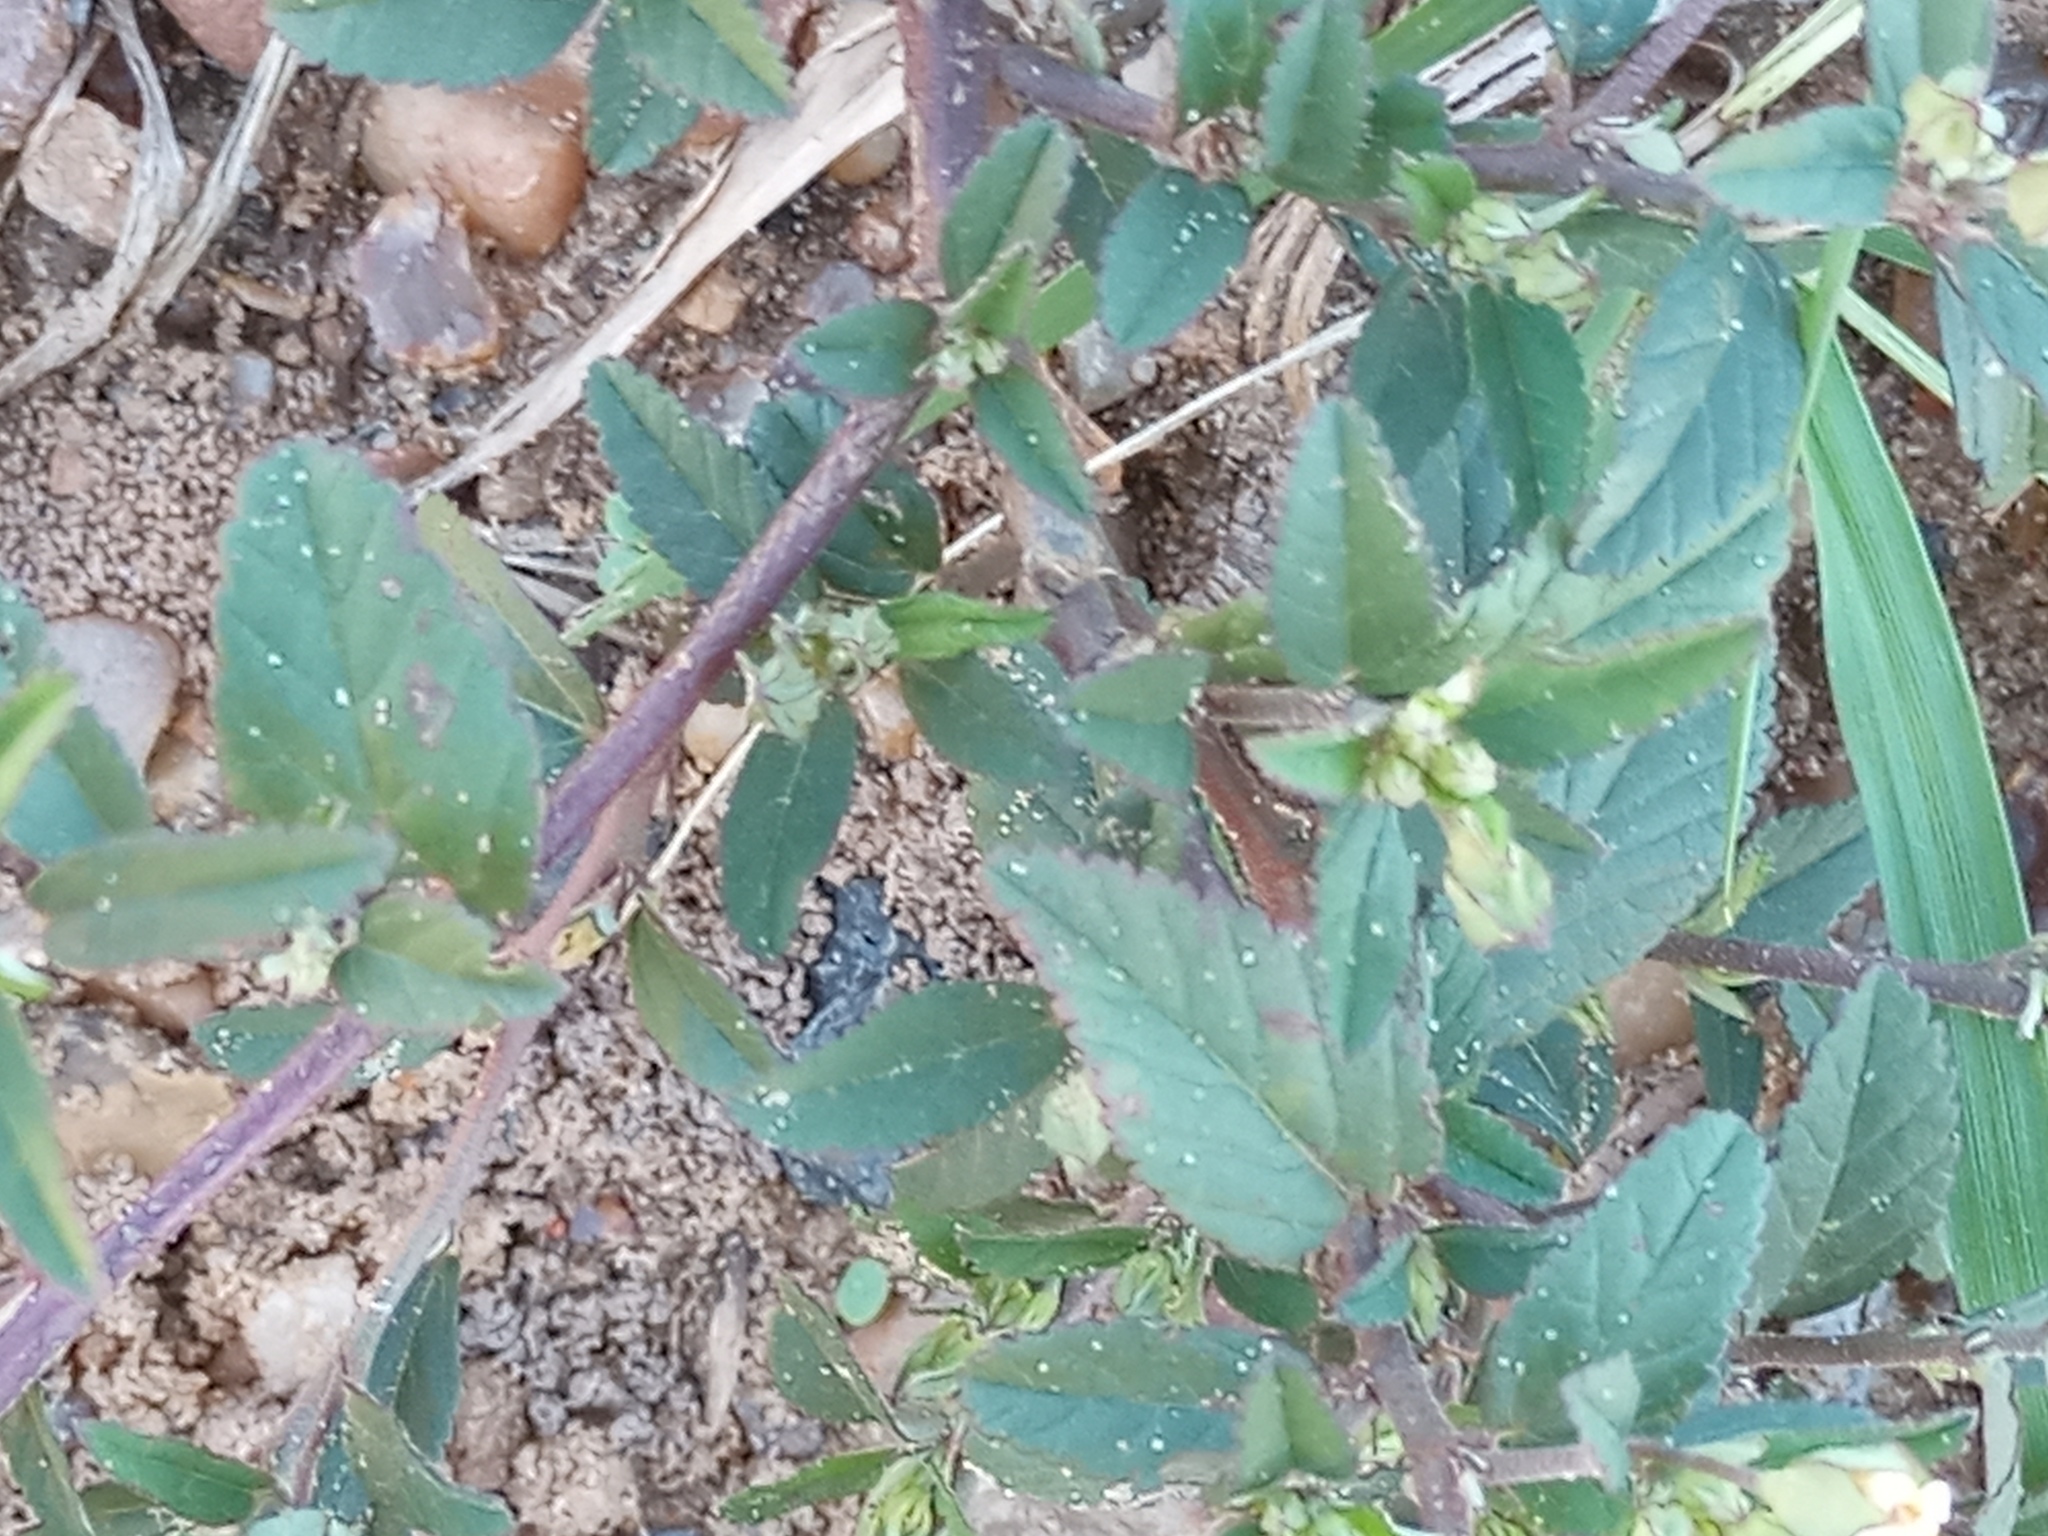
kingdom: Plantae
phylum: Tracheophyta
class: Magnoliopsida
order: Malvales
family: Malvaceae
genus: Sida
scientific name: Sida rhombifolia
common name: Queensland-hemp
